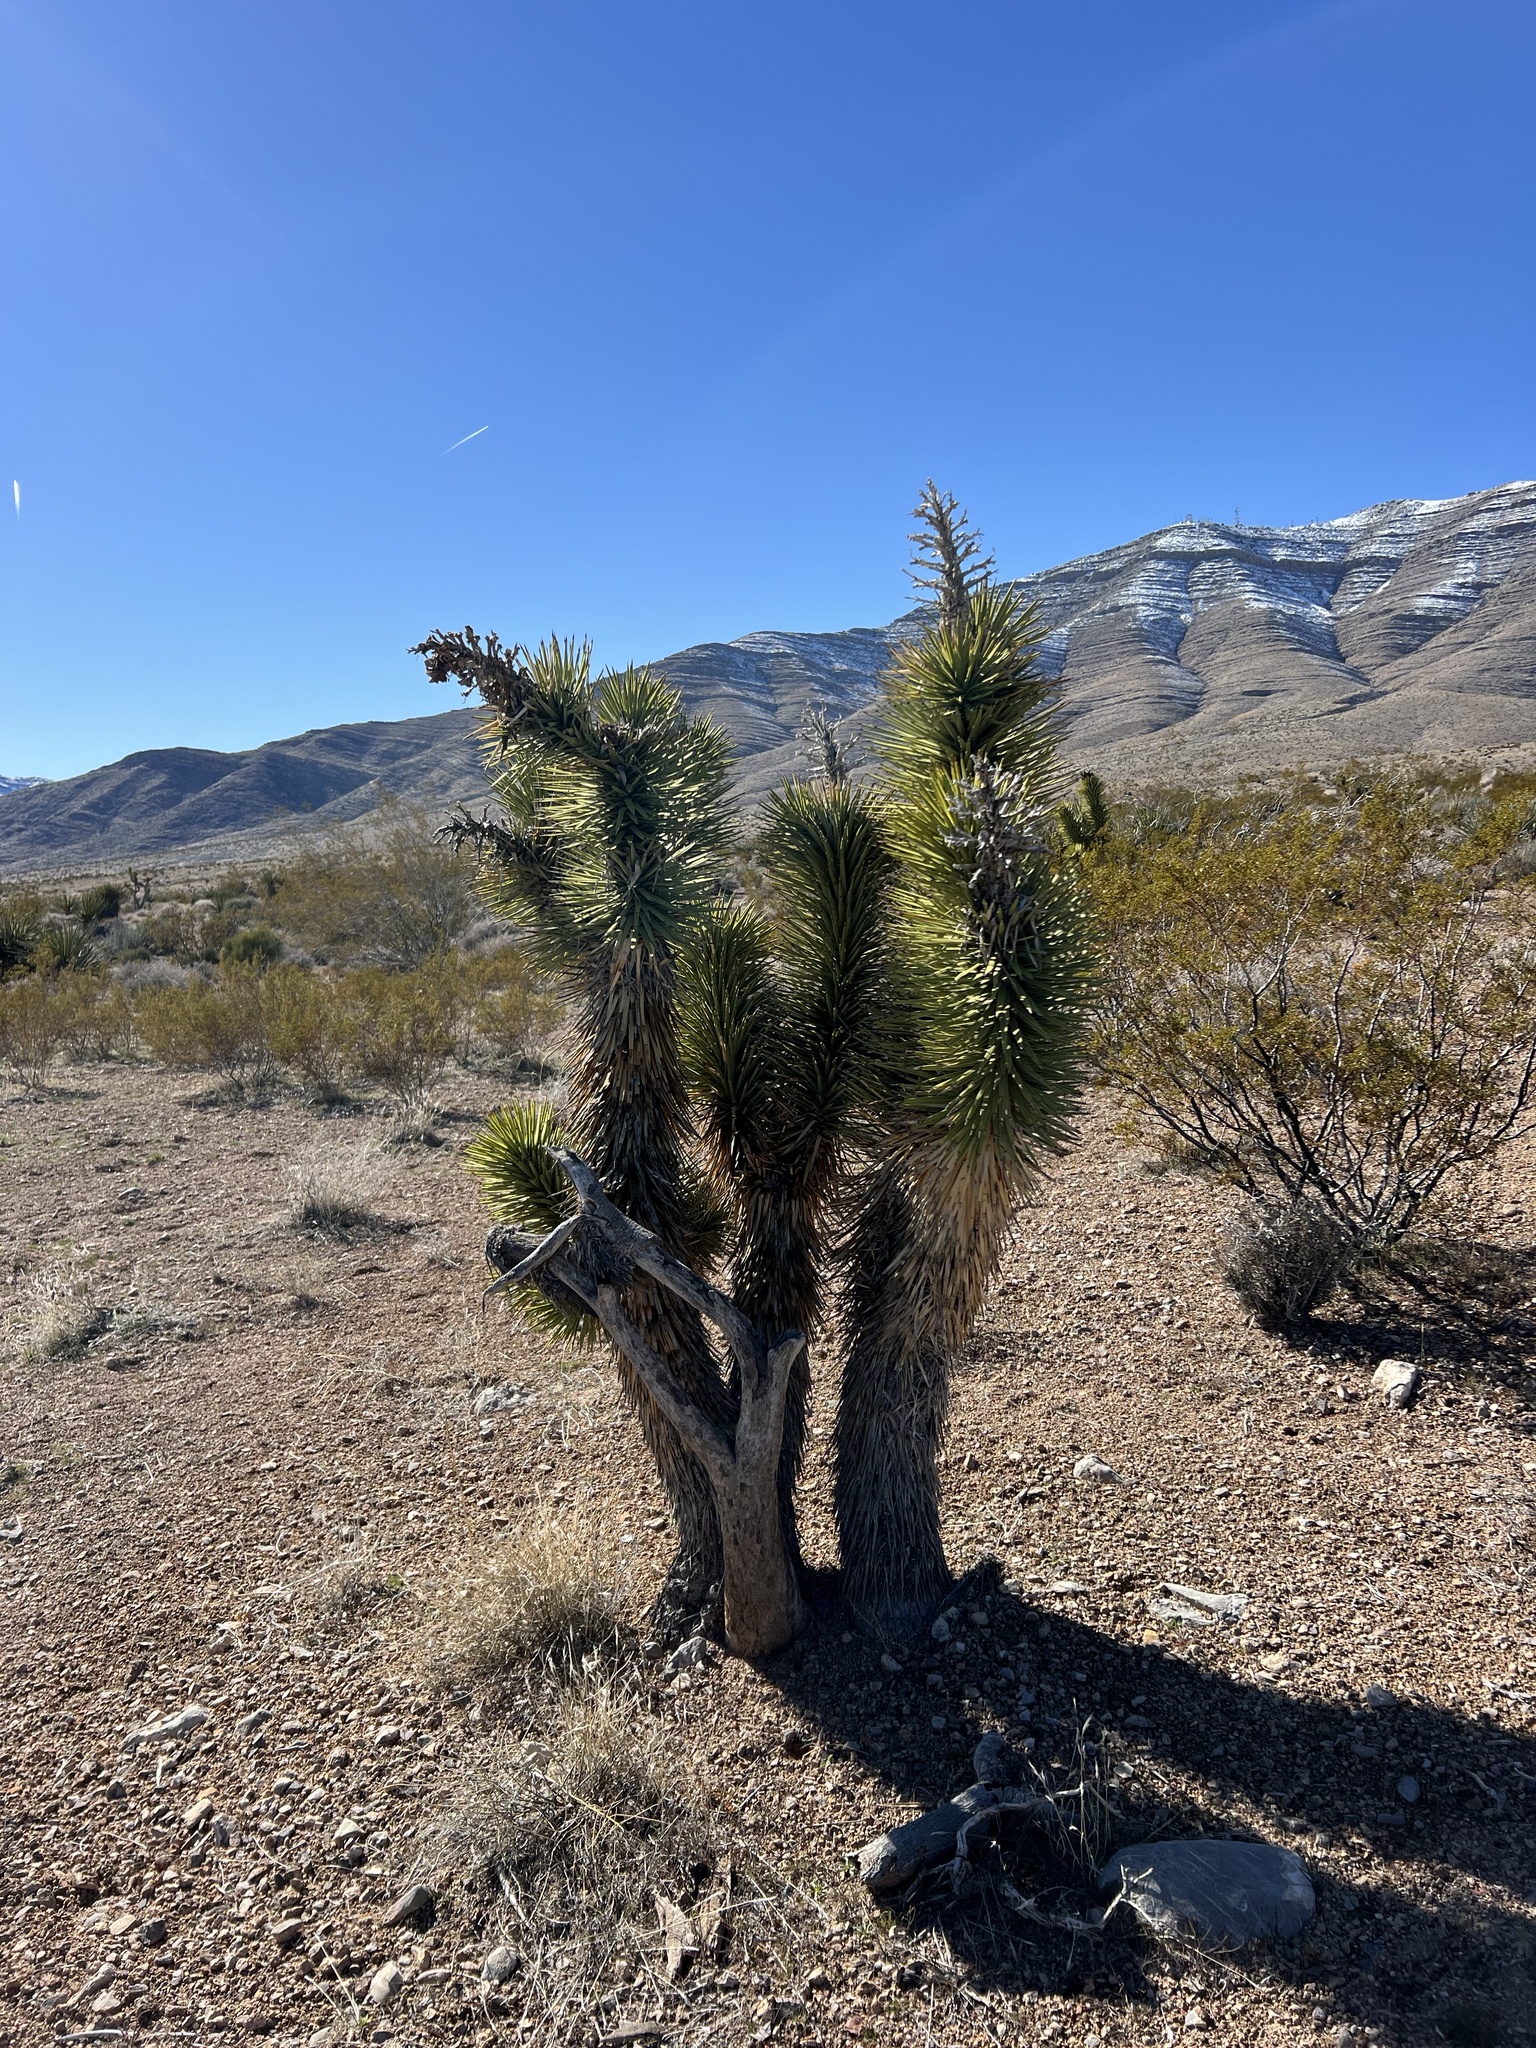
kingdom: Plantae
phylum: Tracheophyta
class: Liliopsida
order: Asparagales
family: Asparagaceae
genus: Yucca
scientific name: Yucca brevifolia
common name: Joshua tree
